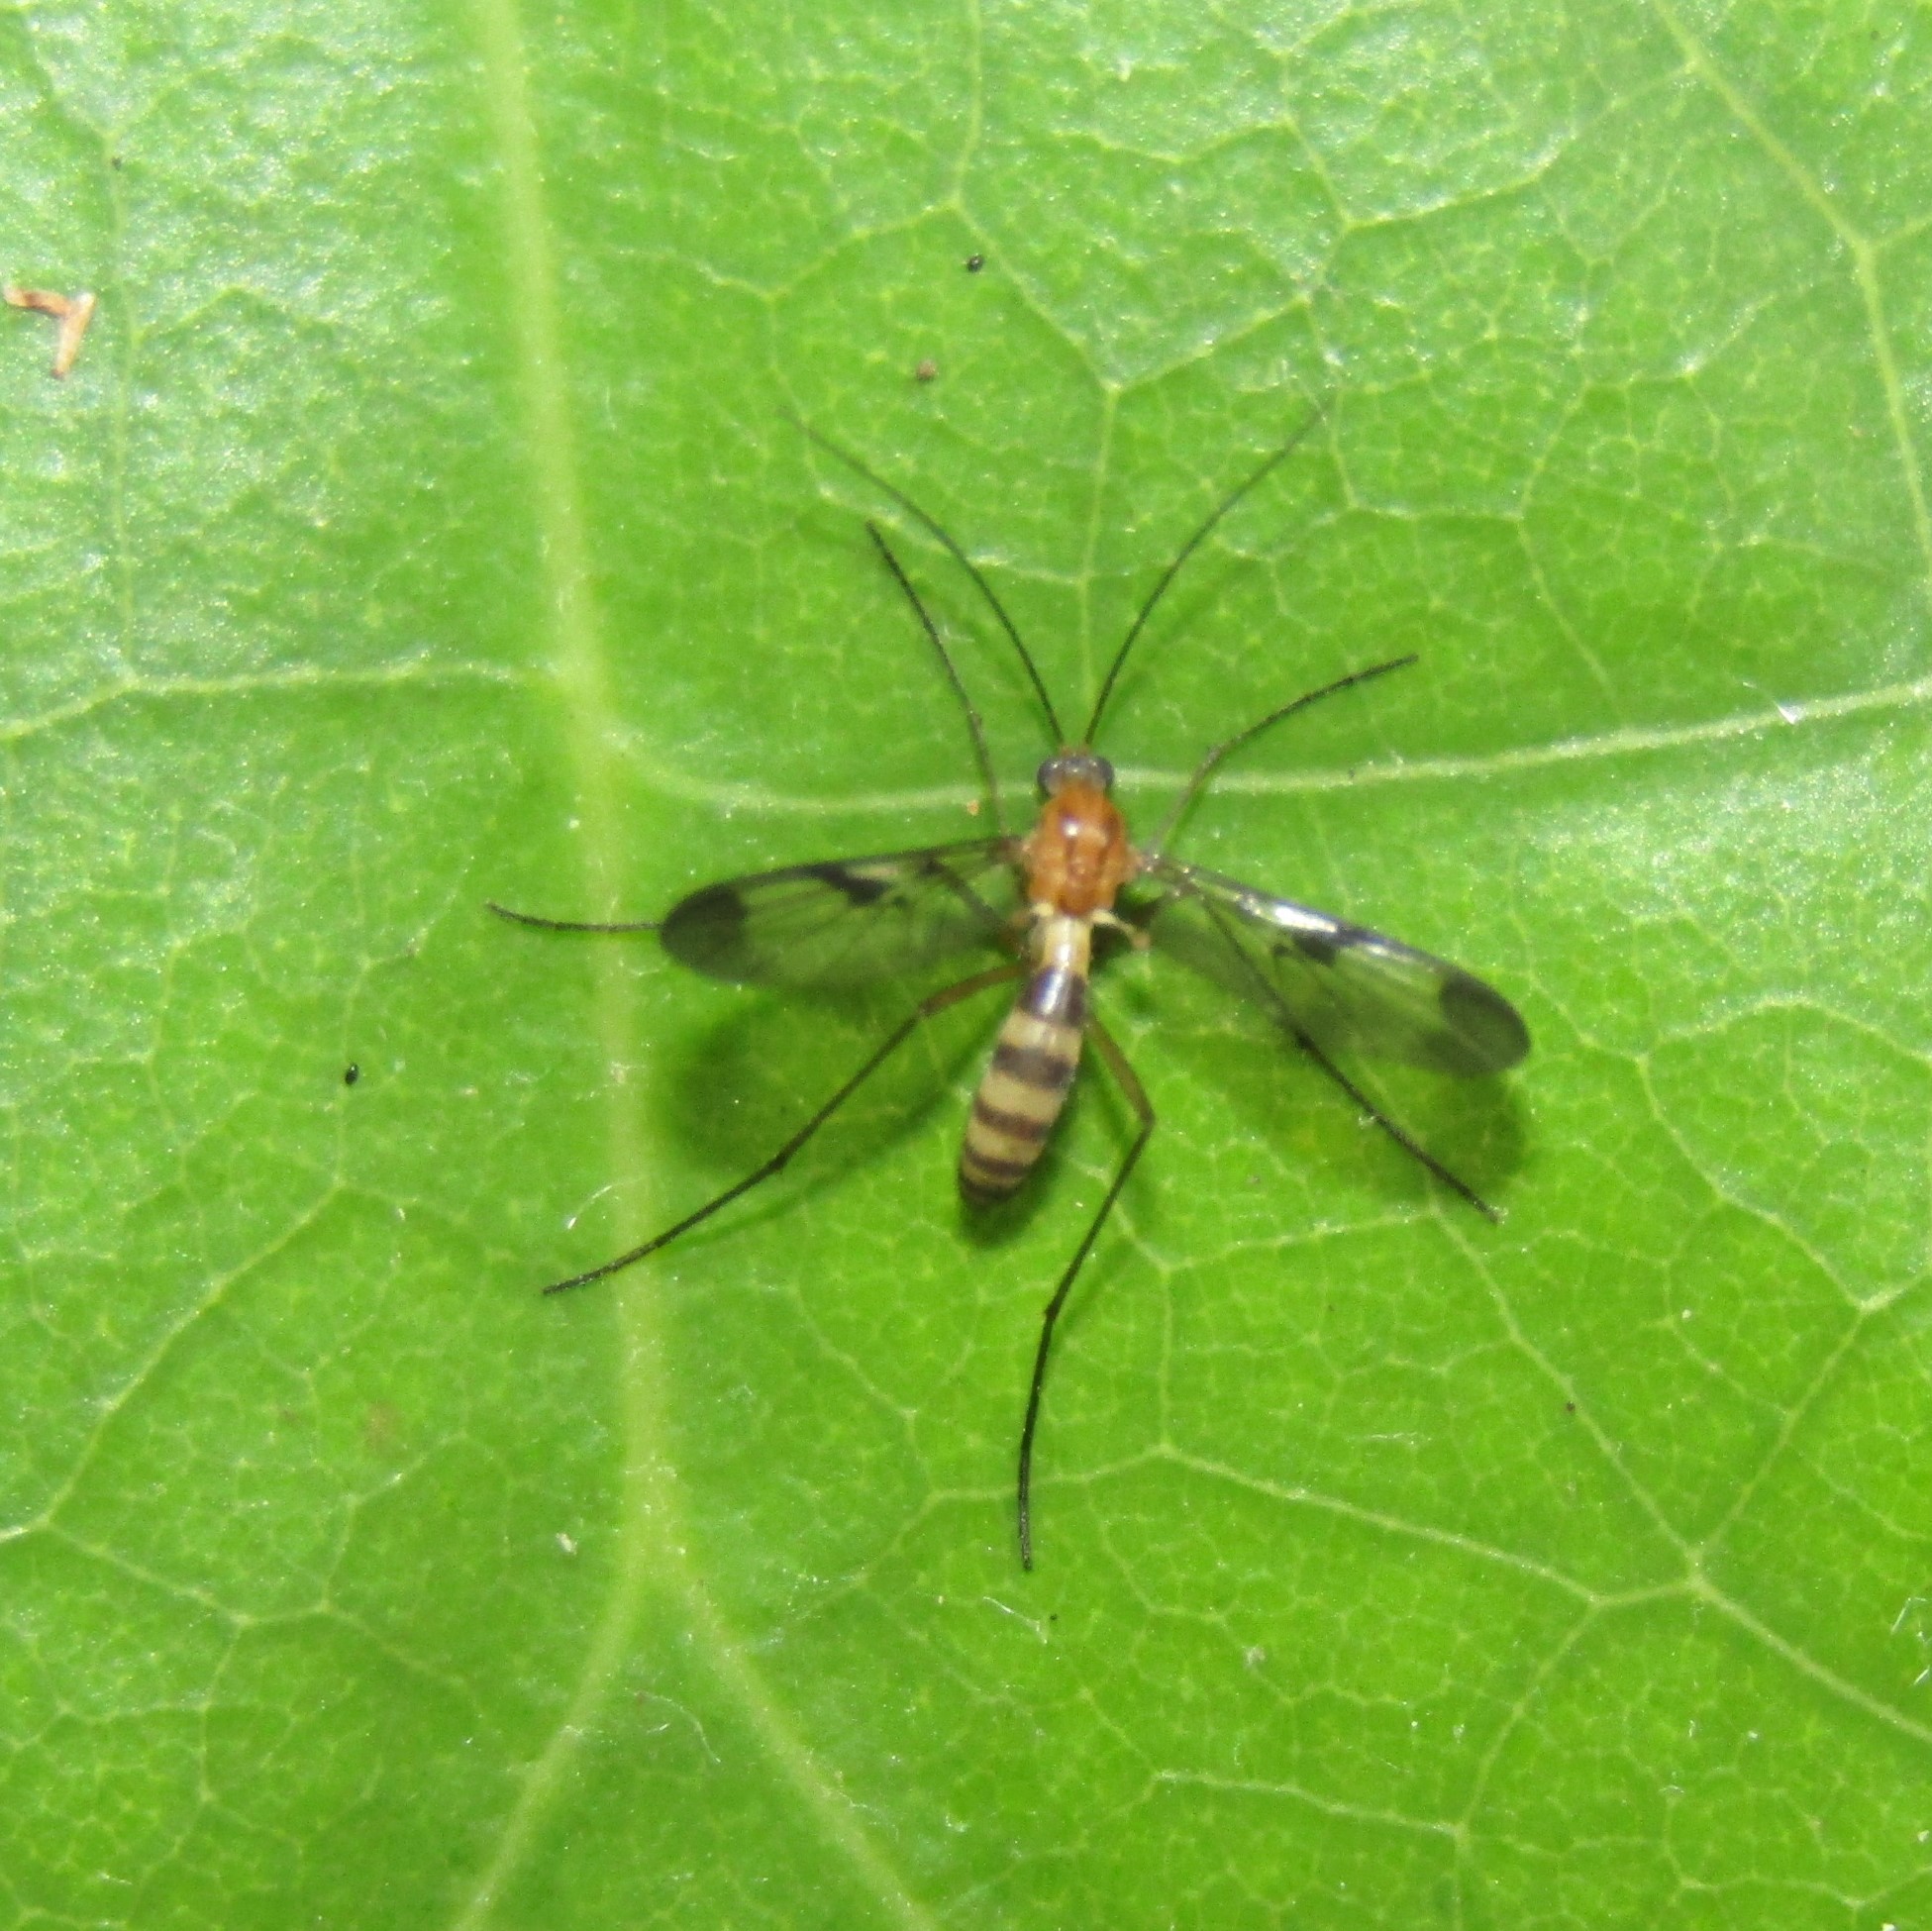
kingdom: Animalia
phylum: Arthropoda
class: Insecta
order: Diptera
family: Keroplatidae
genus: Macrocera
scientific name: Macrocera scoparia
